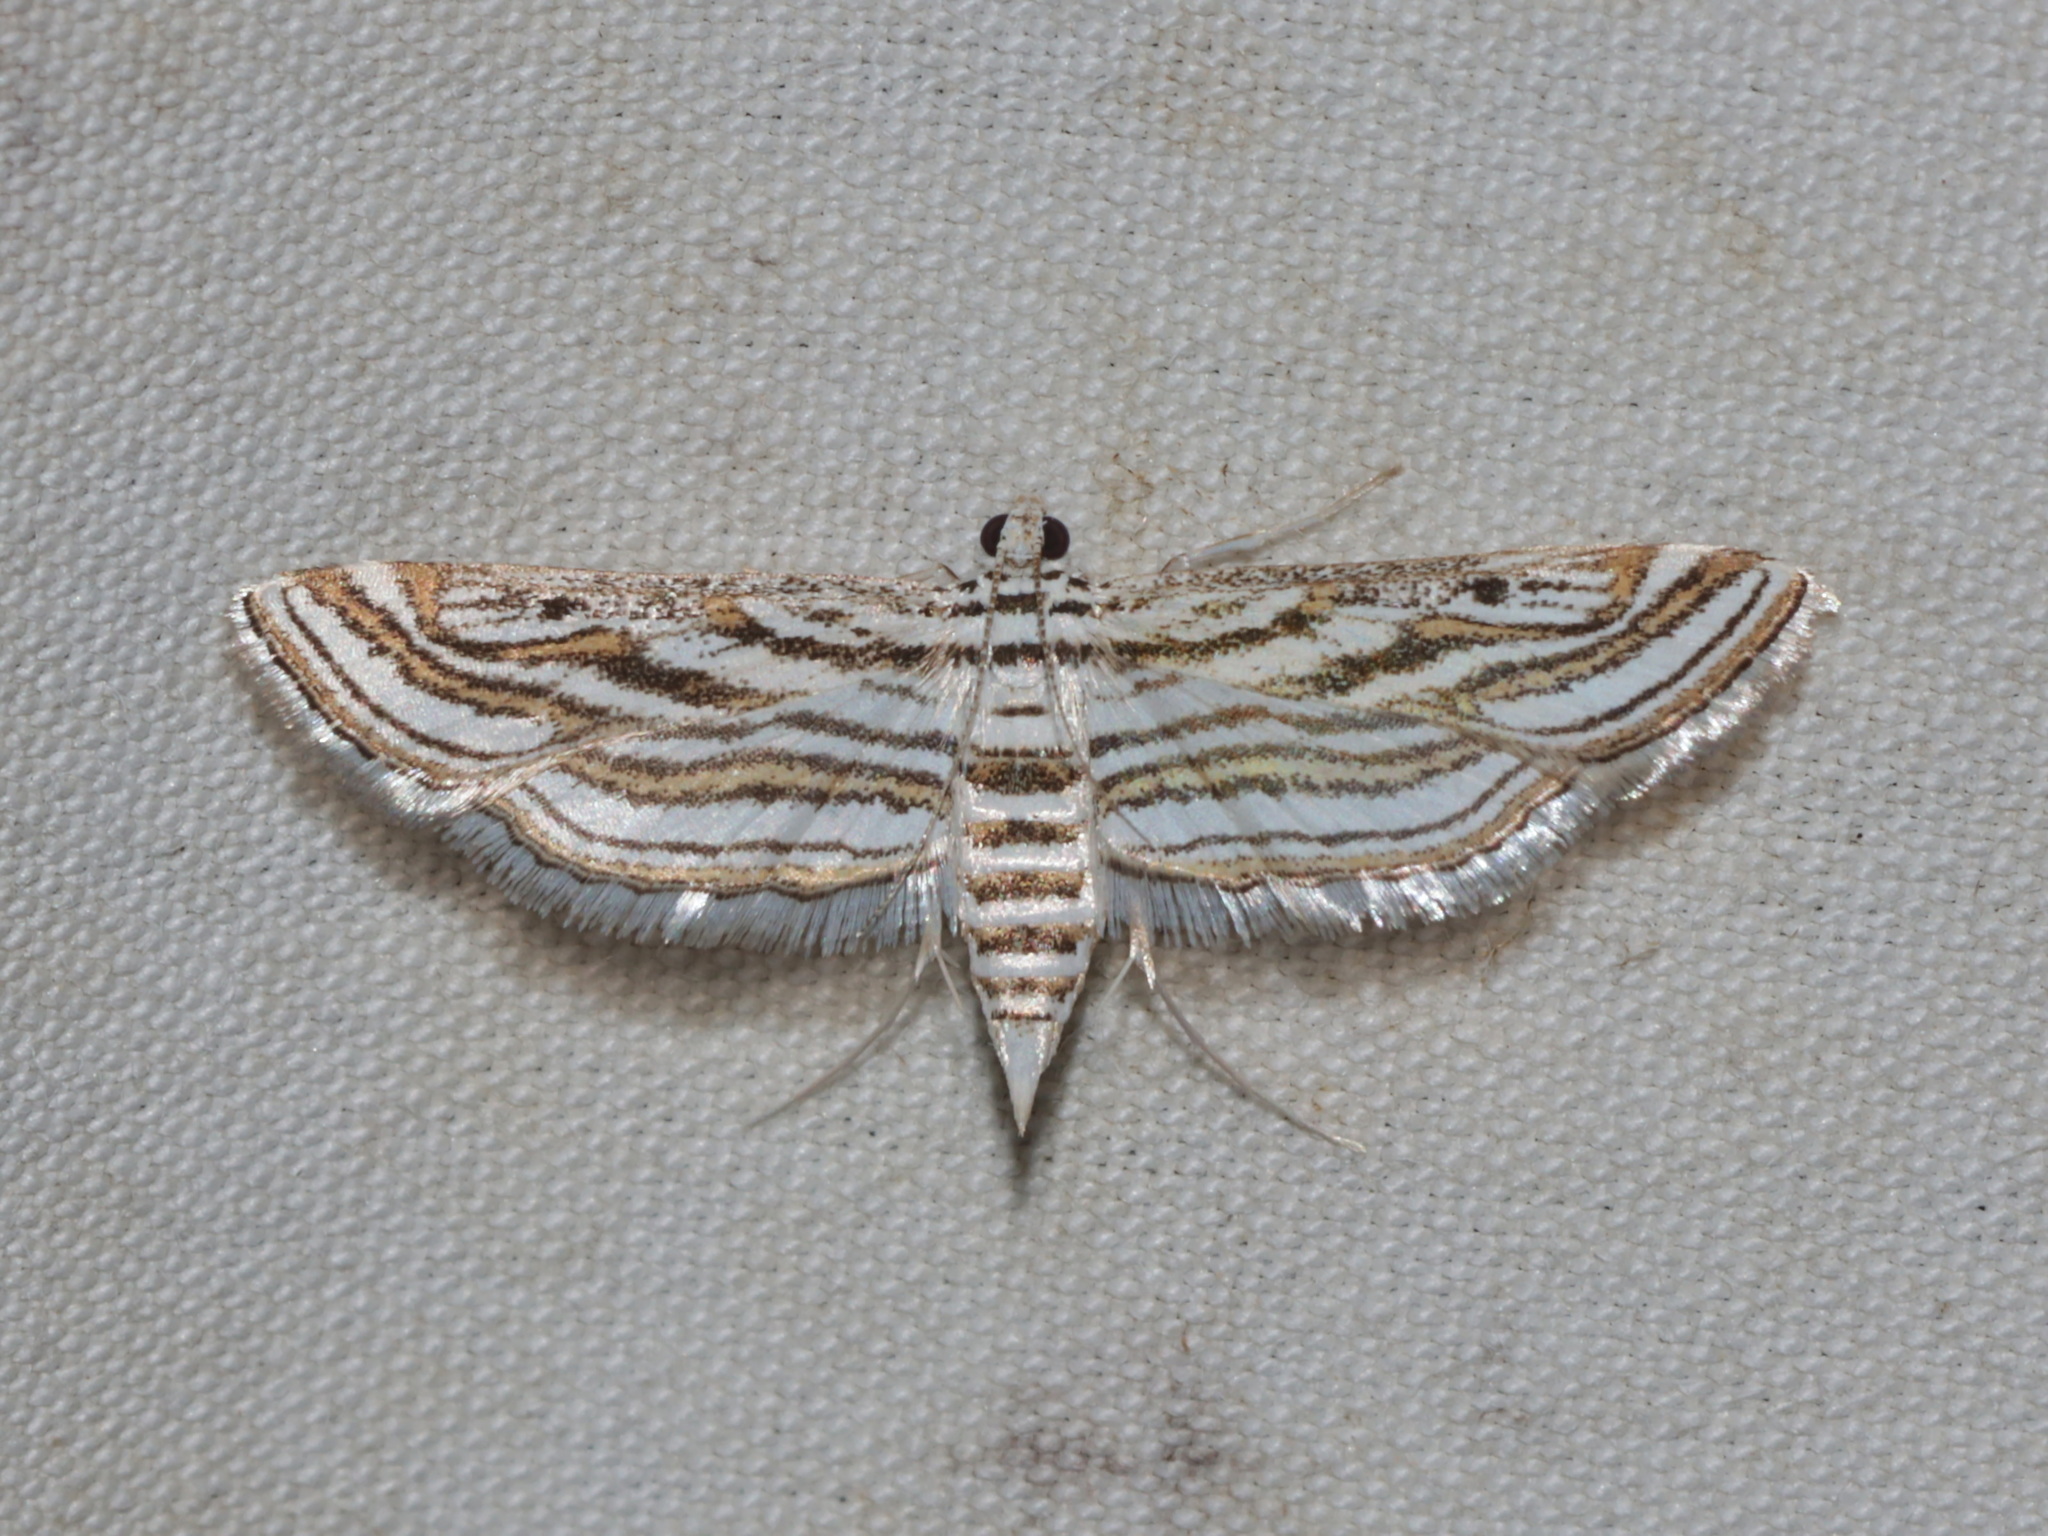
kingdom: Animalia
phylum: Arthropoda
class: Insecta
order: Lepidoptera
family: Crambidae
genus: Parapoynx
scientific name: Parapoynx fluctuosalis
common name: Moth
